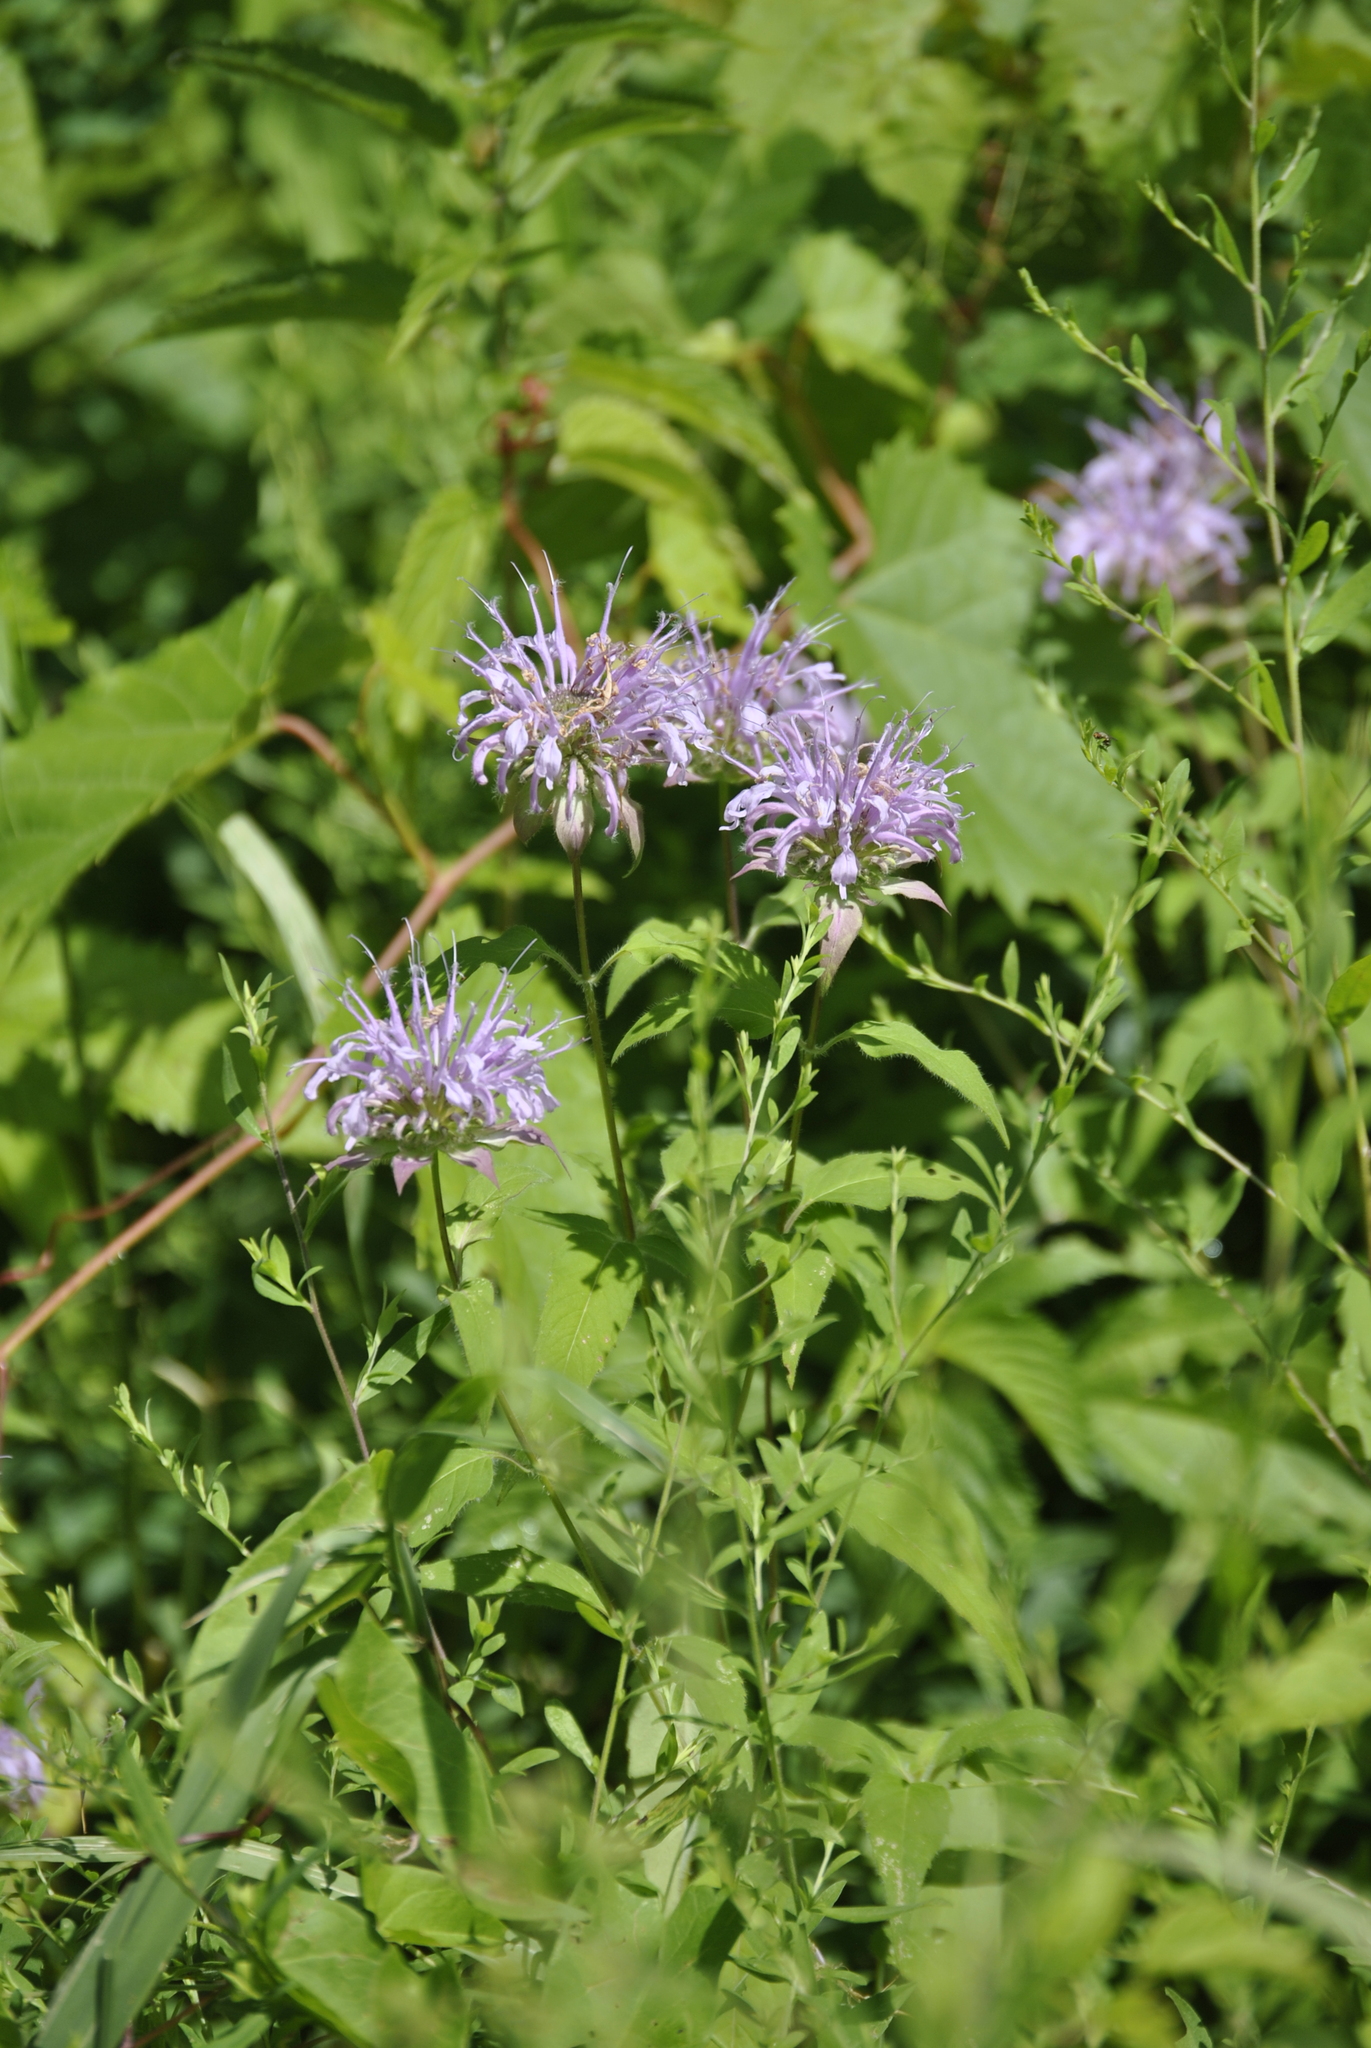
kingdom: Plantae
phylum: Tracheophyta
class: Magnoliopsida
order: Lamiales
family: Lamiaceae
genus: Monarda
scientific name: Monarda fistulosa
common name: Purple beebalm
